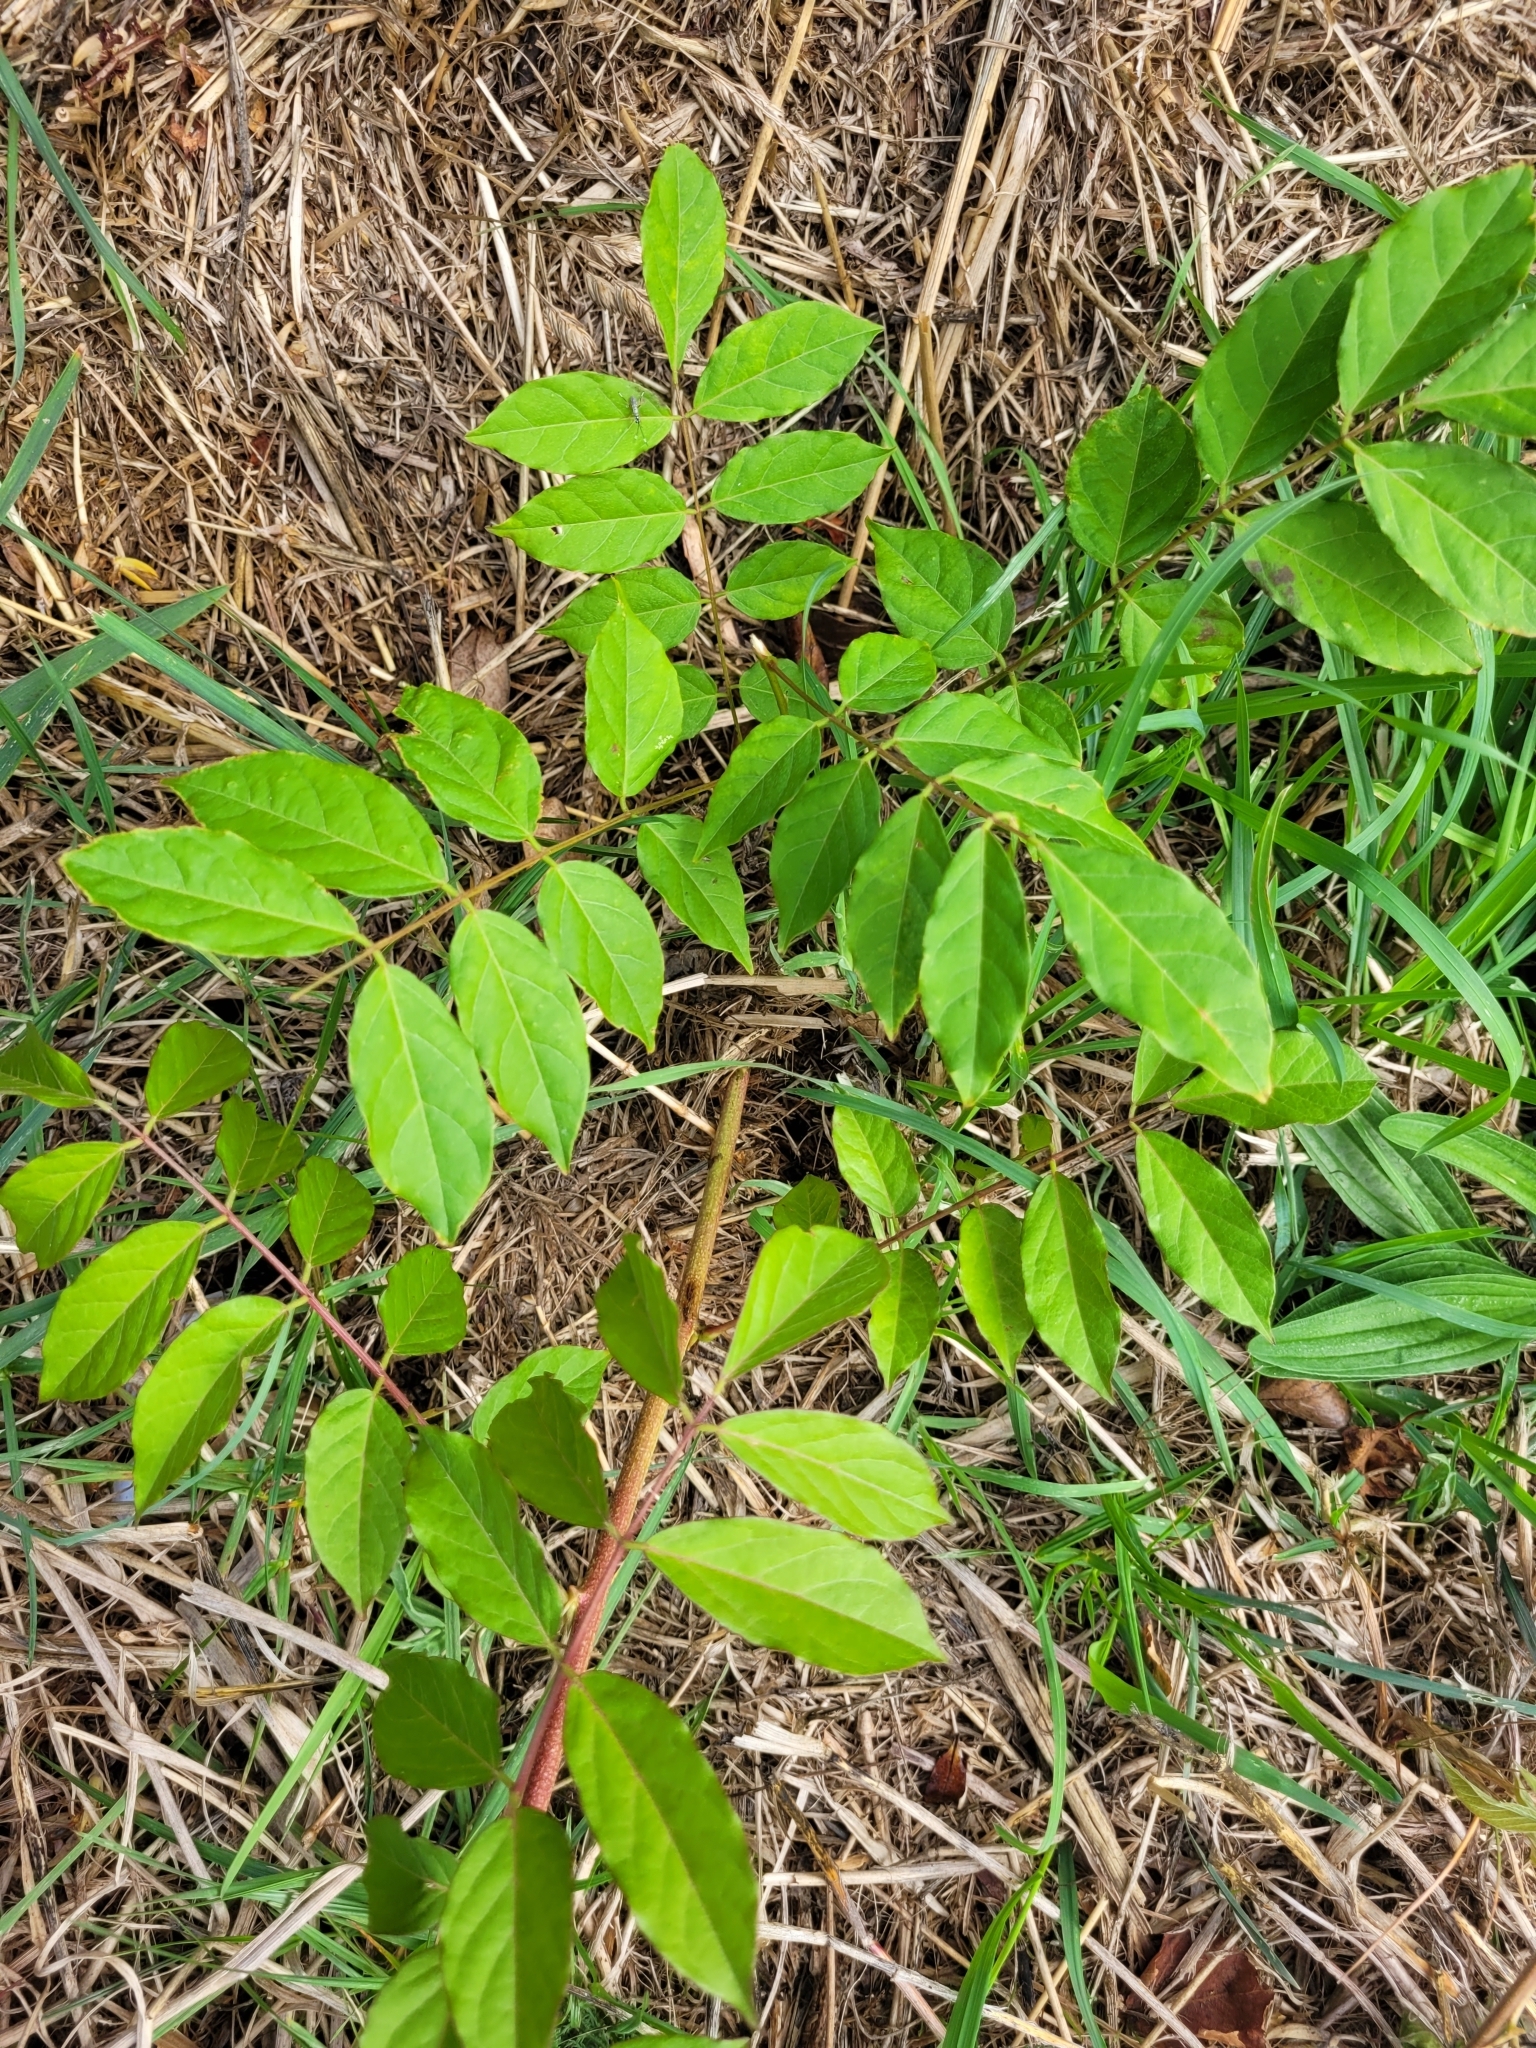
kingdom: Plantae
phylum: Tracheophyta
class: Magnoliopsida
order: Fabales
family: Fabaceae
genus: Wisteria
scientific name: Wisteria sinensis
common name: Chinese wisteria
